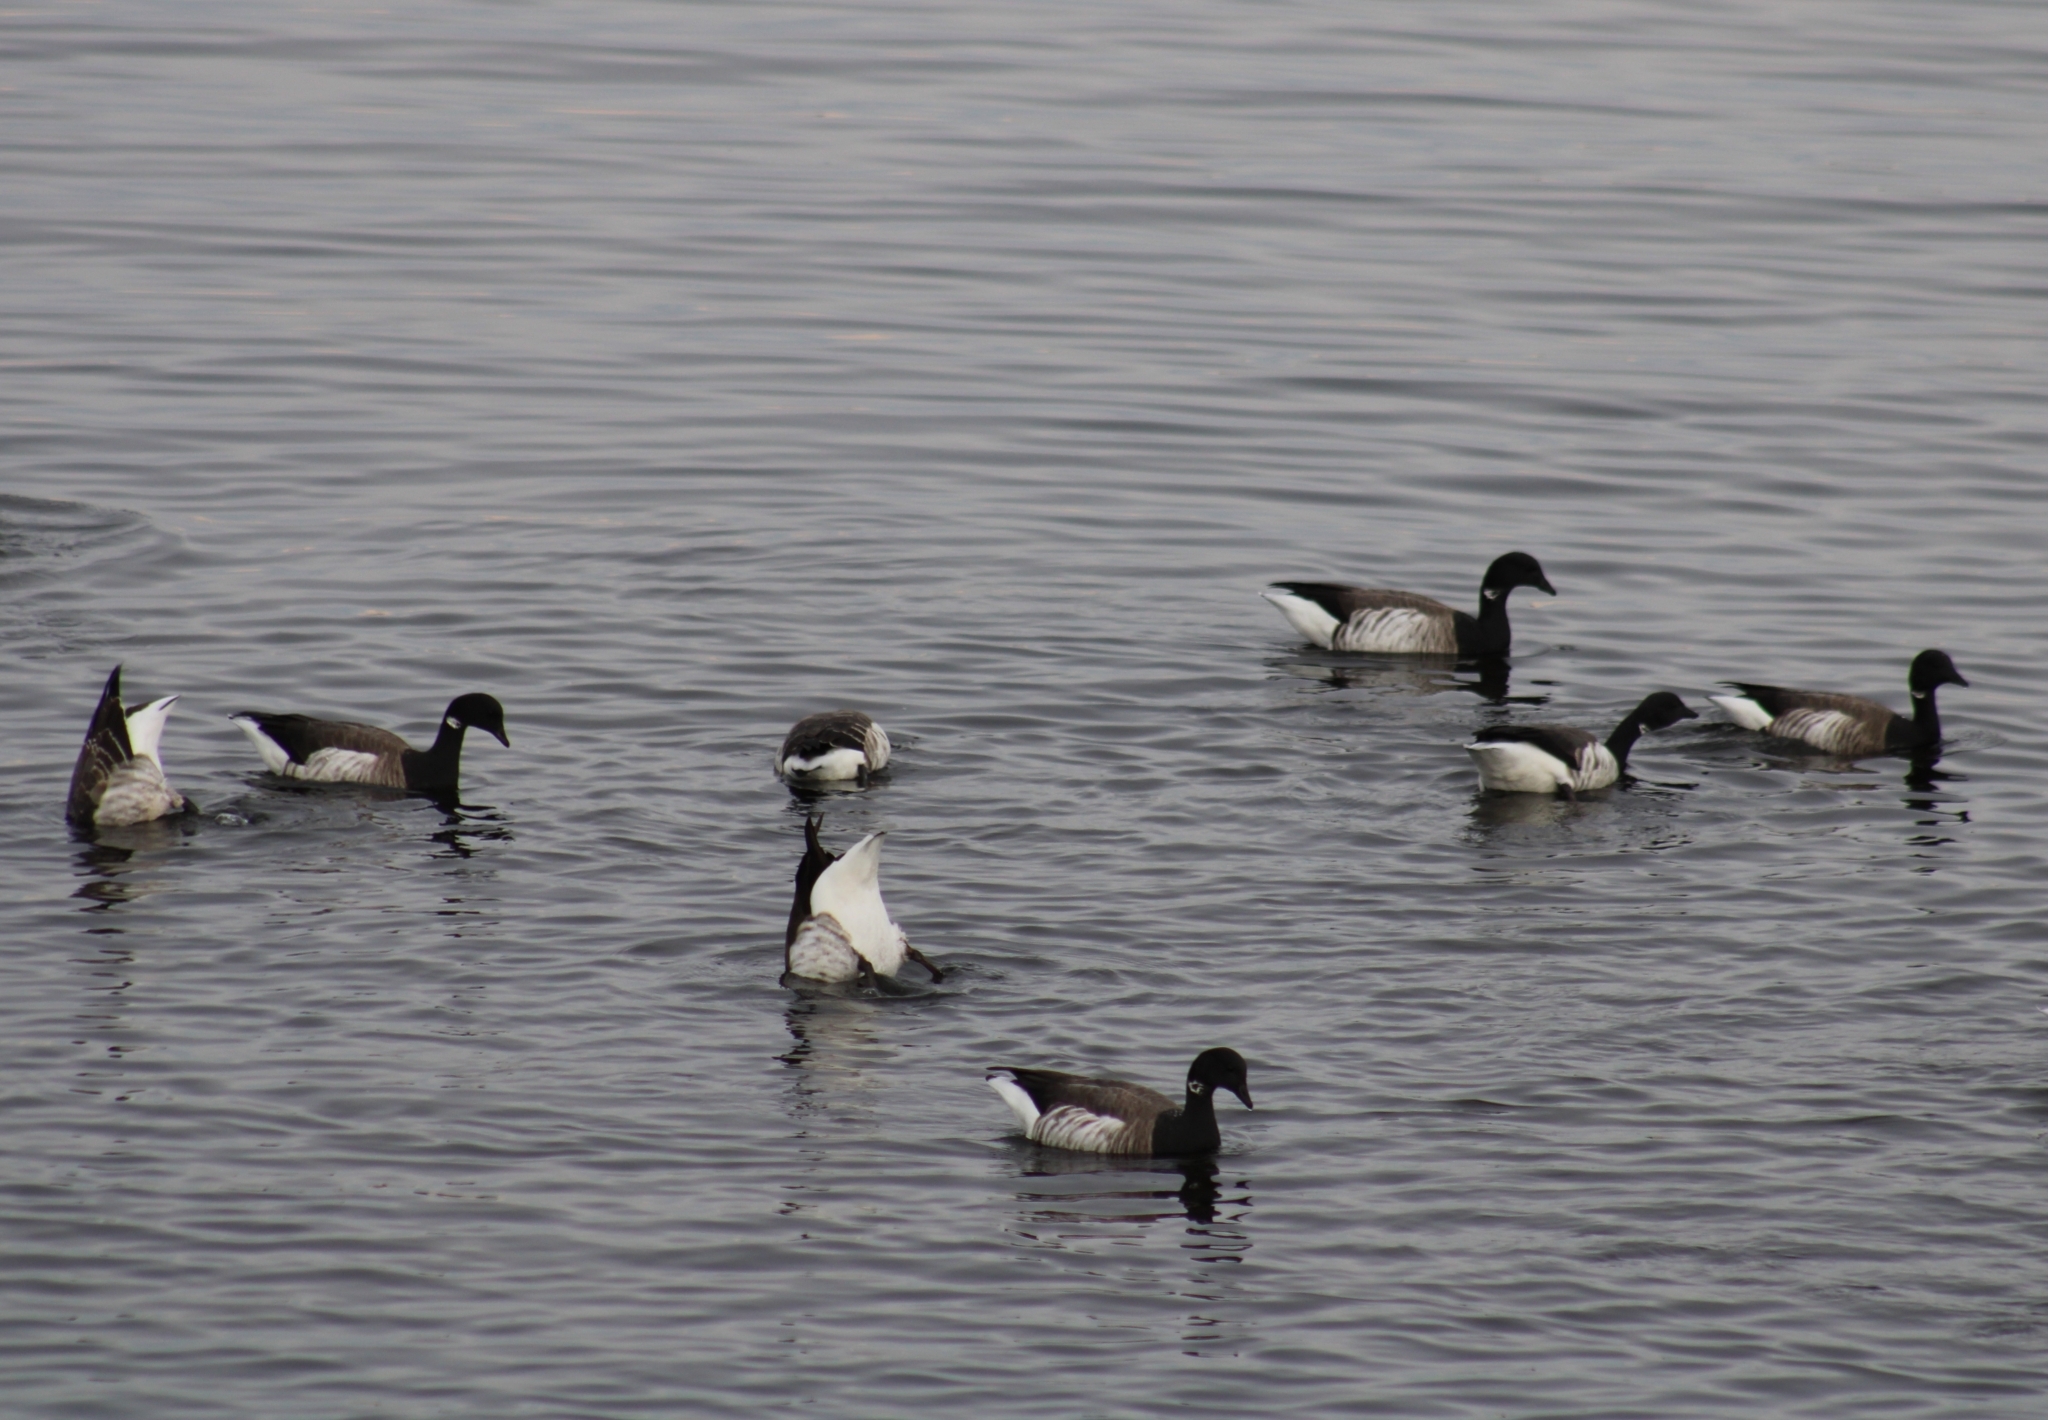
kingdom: Animalia
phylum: Chordata
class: Aves
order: Anseriformes
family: Anatidae
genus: Branta
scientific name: Branta bernicla
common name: Brant goose
